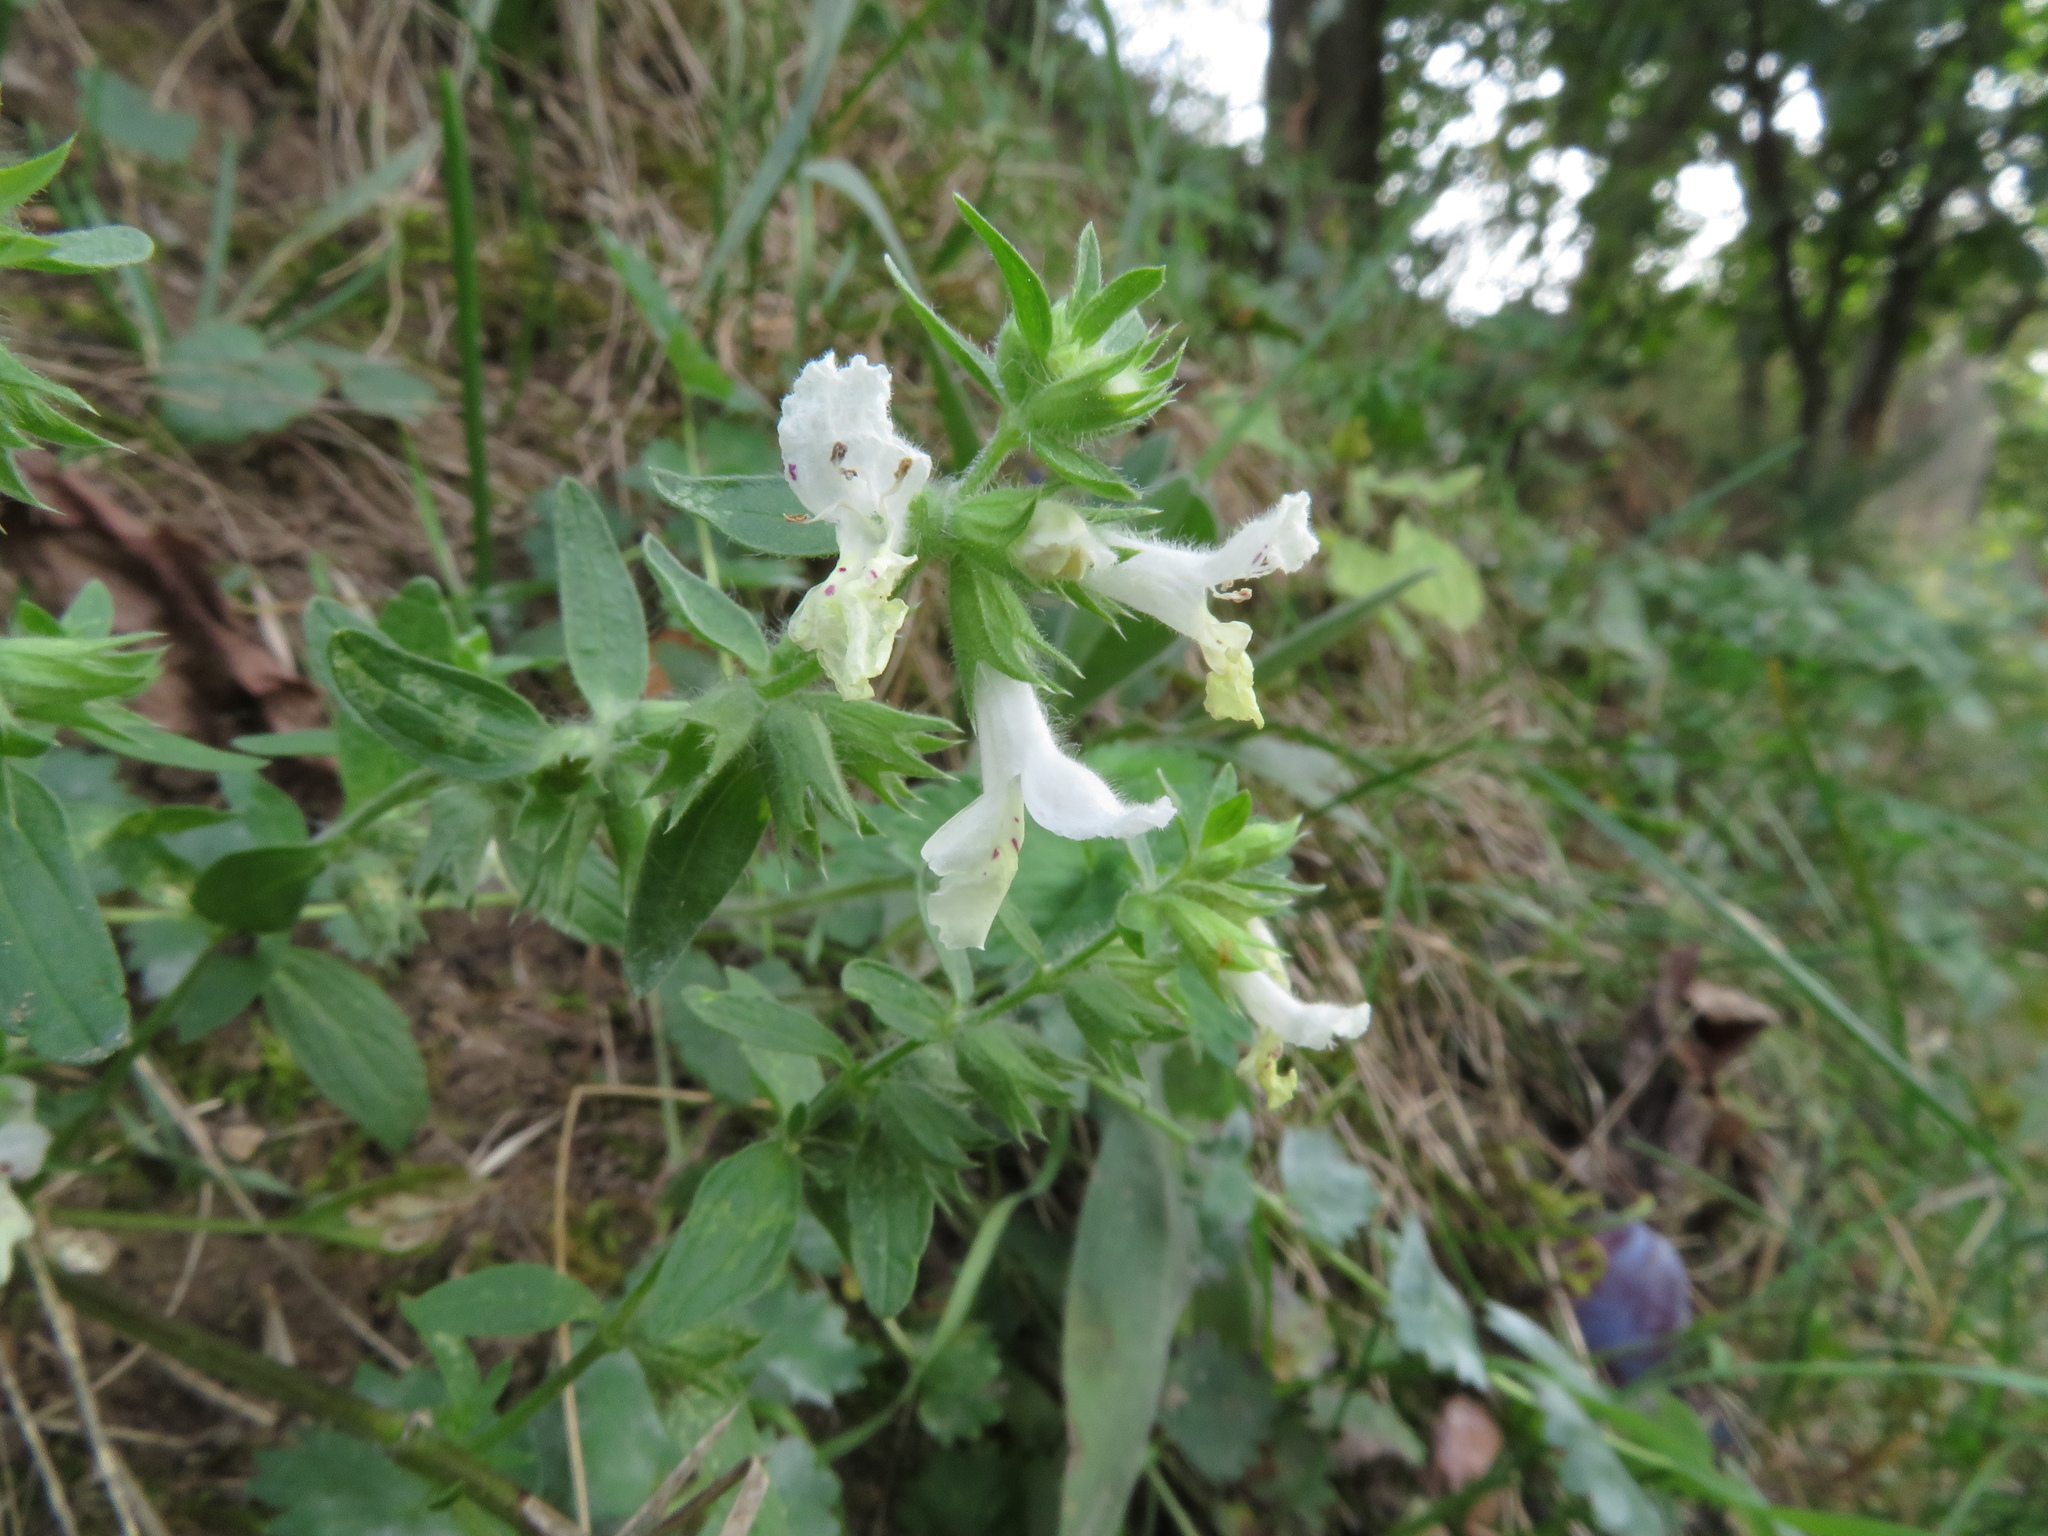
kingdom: Plantae
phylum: Tracheophyta
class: Magnoliopsida
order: Lamiales
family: Lamiaceae
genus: Stachys
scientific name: Stachys annua
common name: Annual yellow-woundwort
